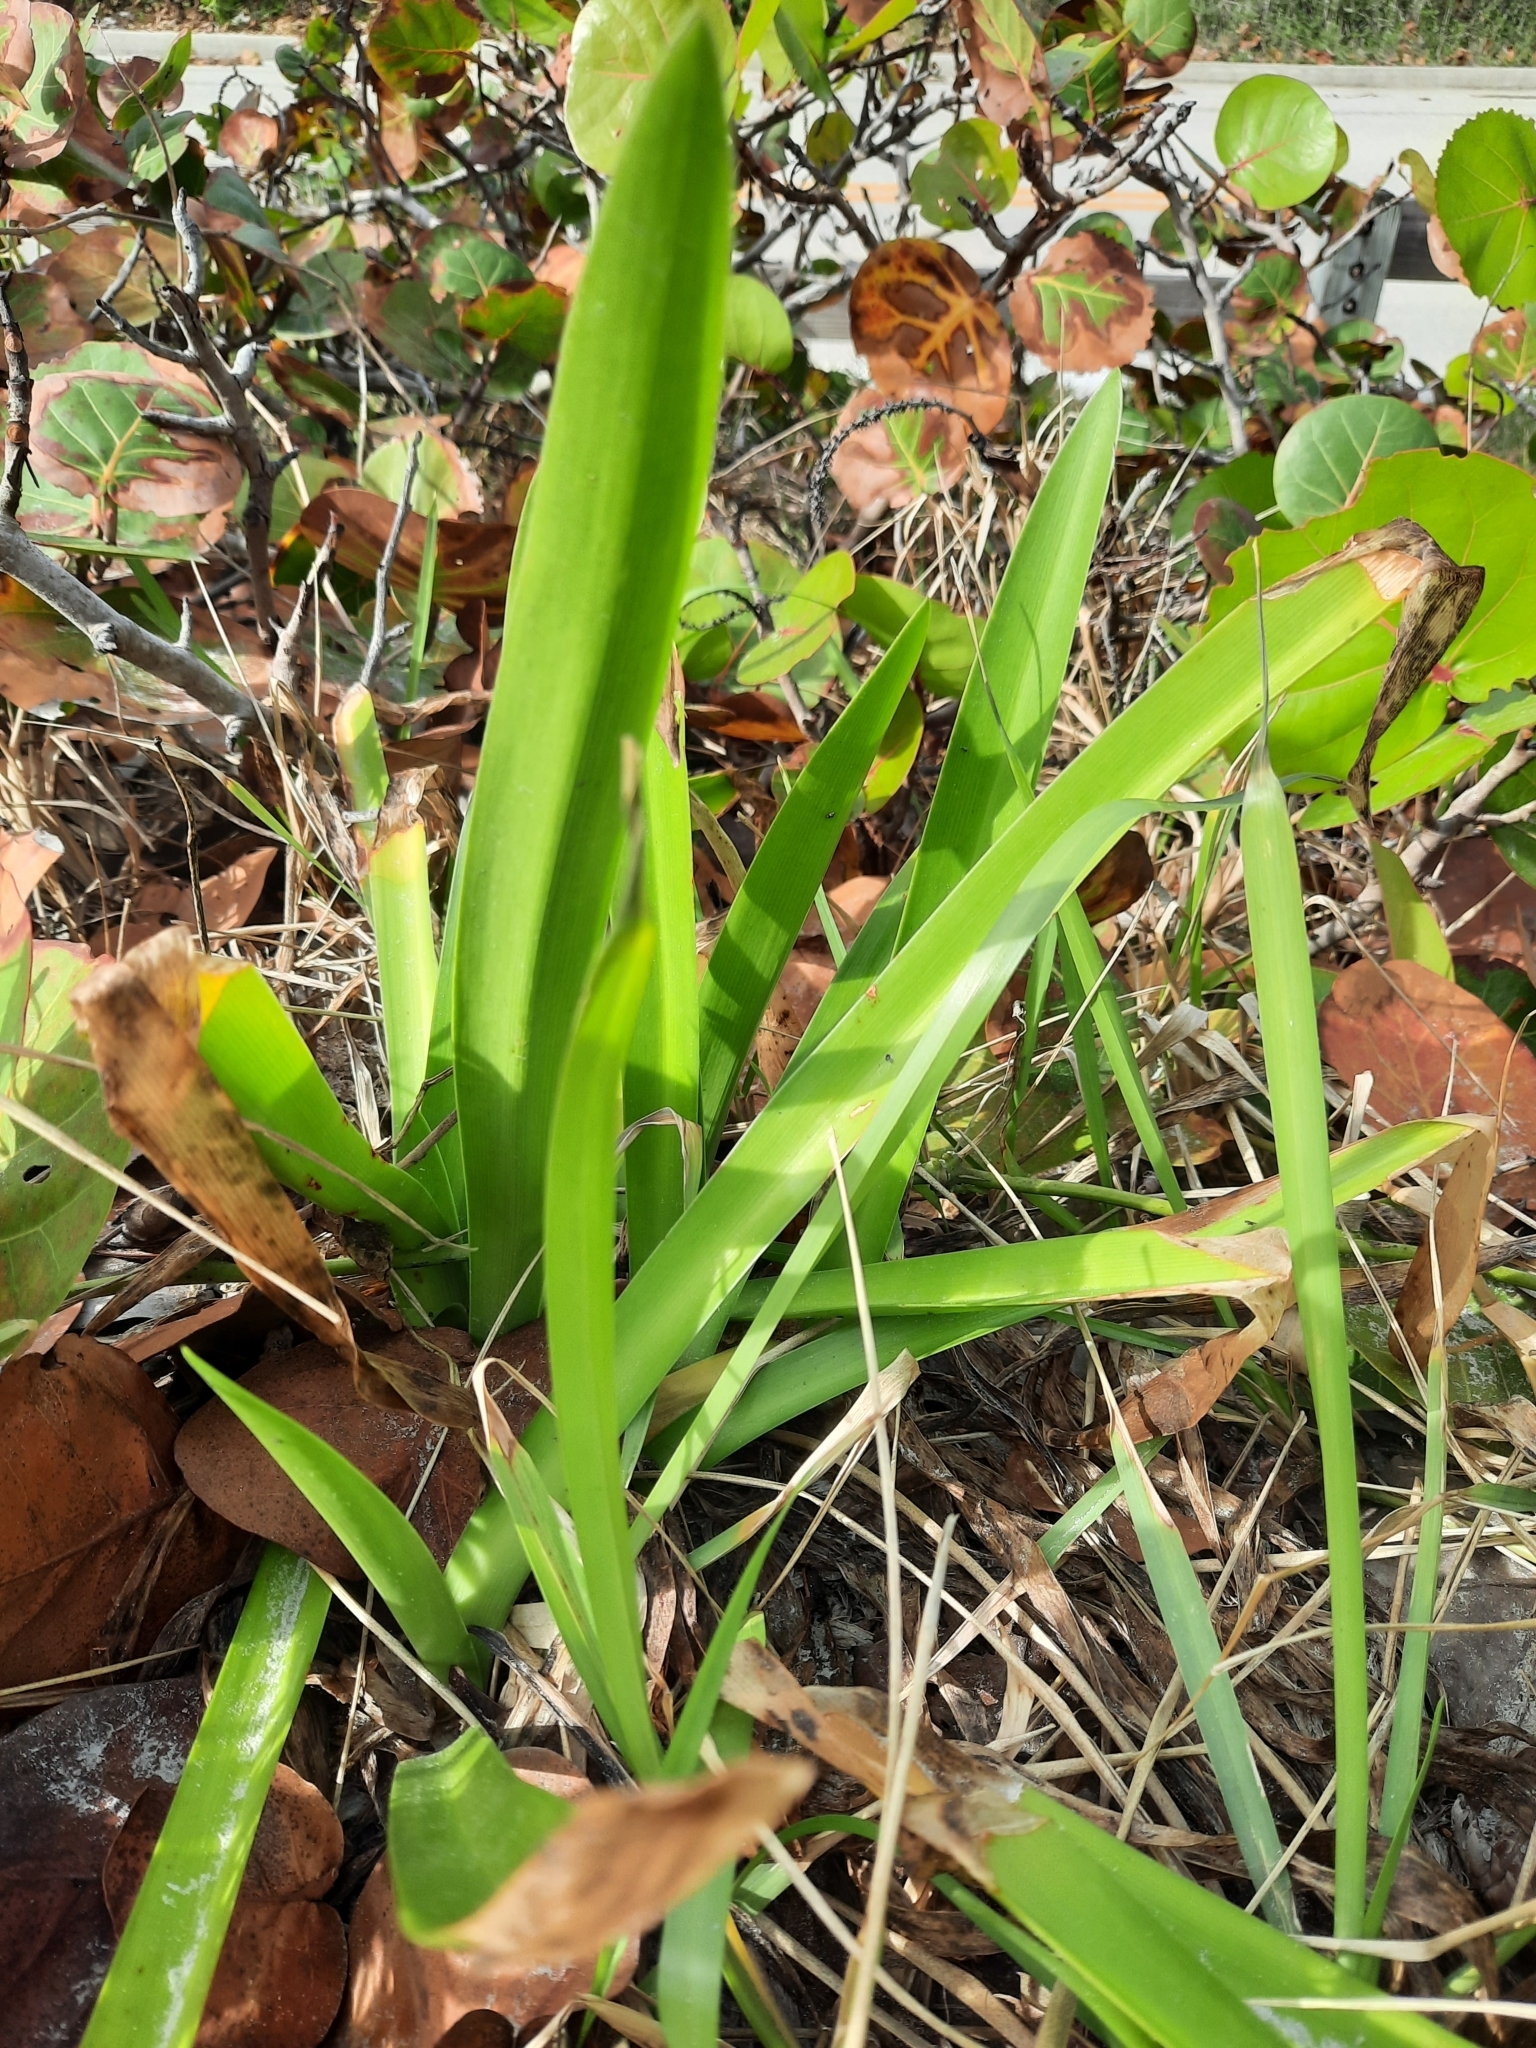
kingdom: Plantae
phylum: Tracheophyta
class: Liliopsida
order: Asparagales
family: Amaryllidaceae
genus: Hymenocallis
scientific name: Hymenocallis latifolia
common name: Cayman islands spider-lily
